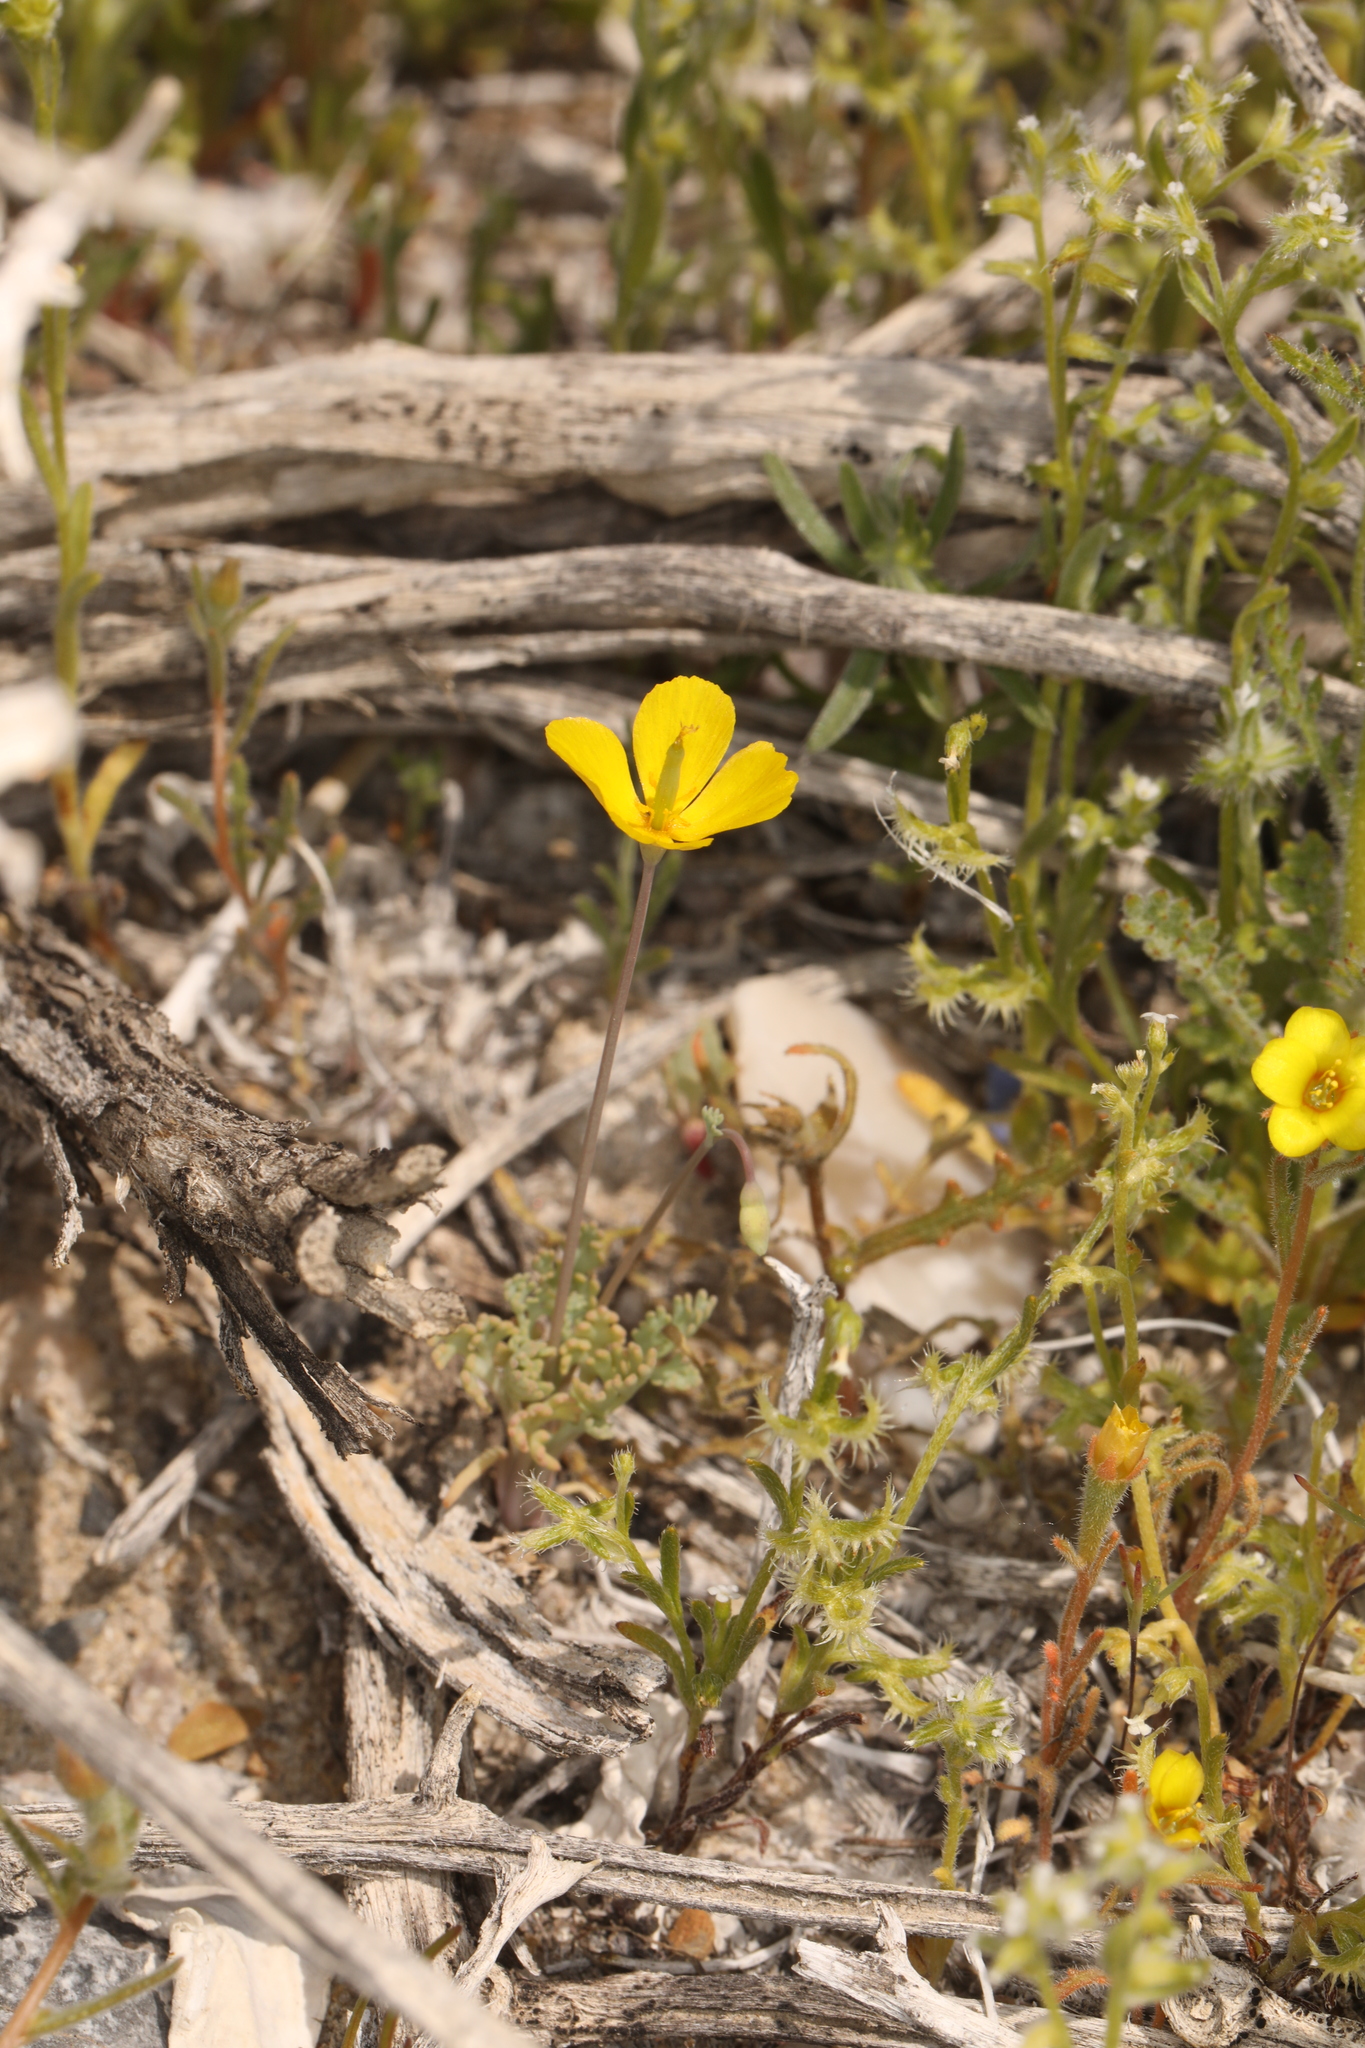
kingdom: Plantae
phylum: Tracheophyta
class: Magnoliopsida
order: Ranunculales
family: Papaveraceae
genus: Eschscholzia
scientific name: Eschscholzia minutiflora
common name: Small-flower california-poppy
